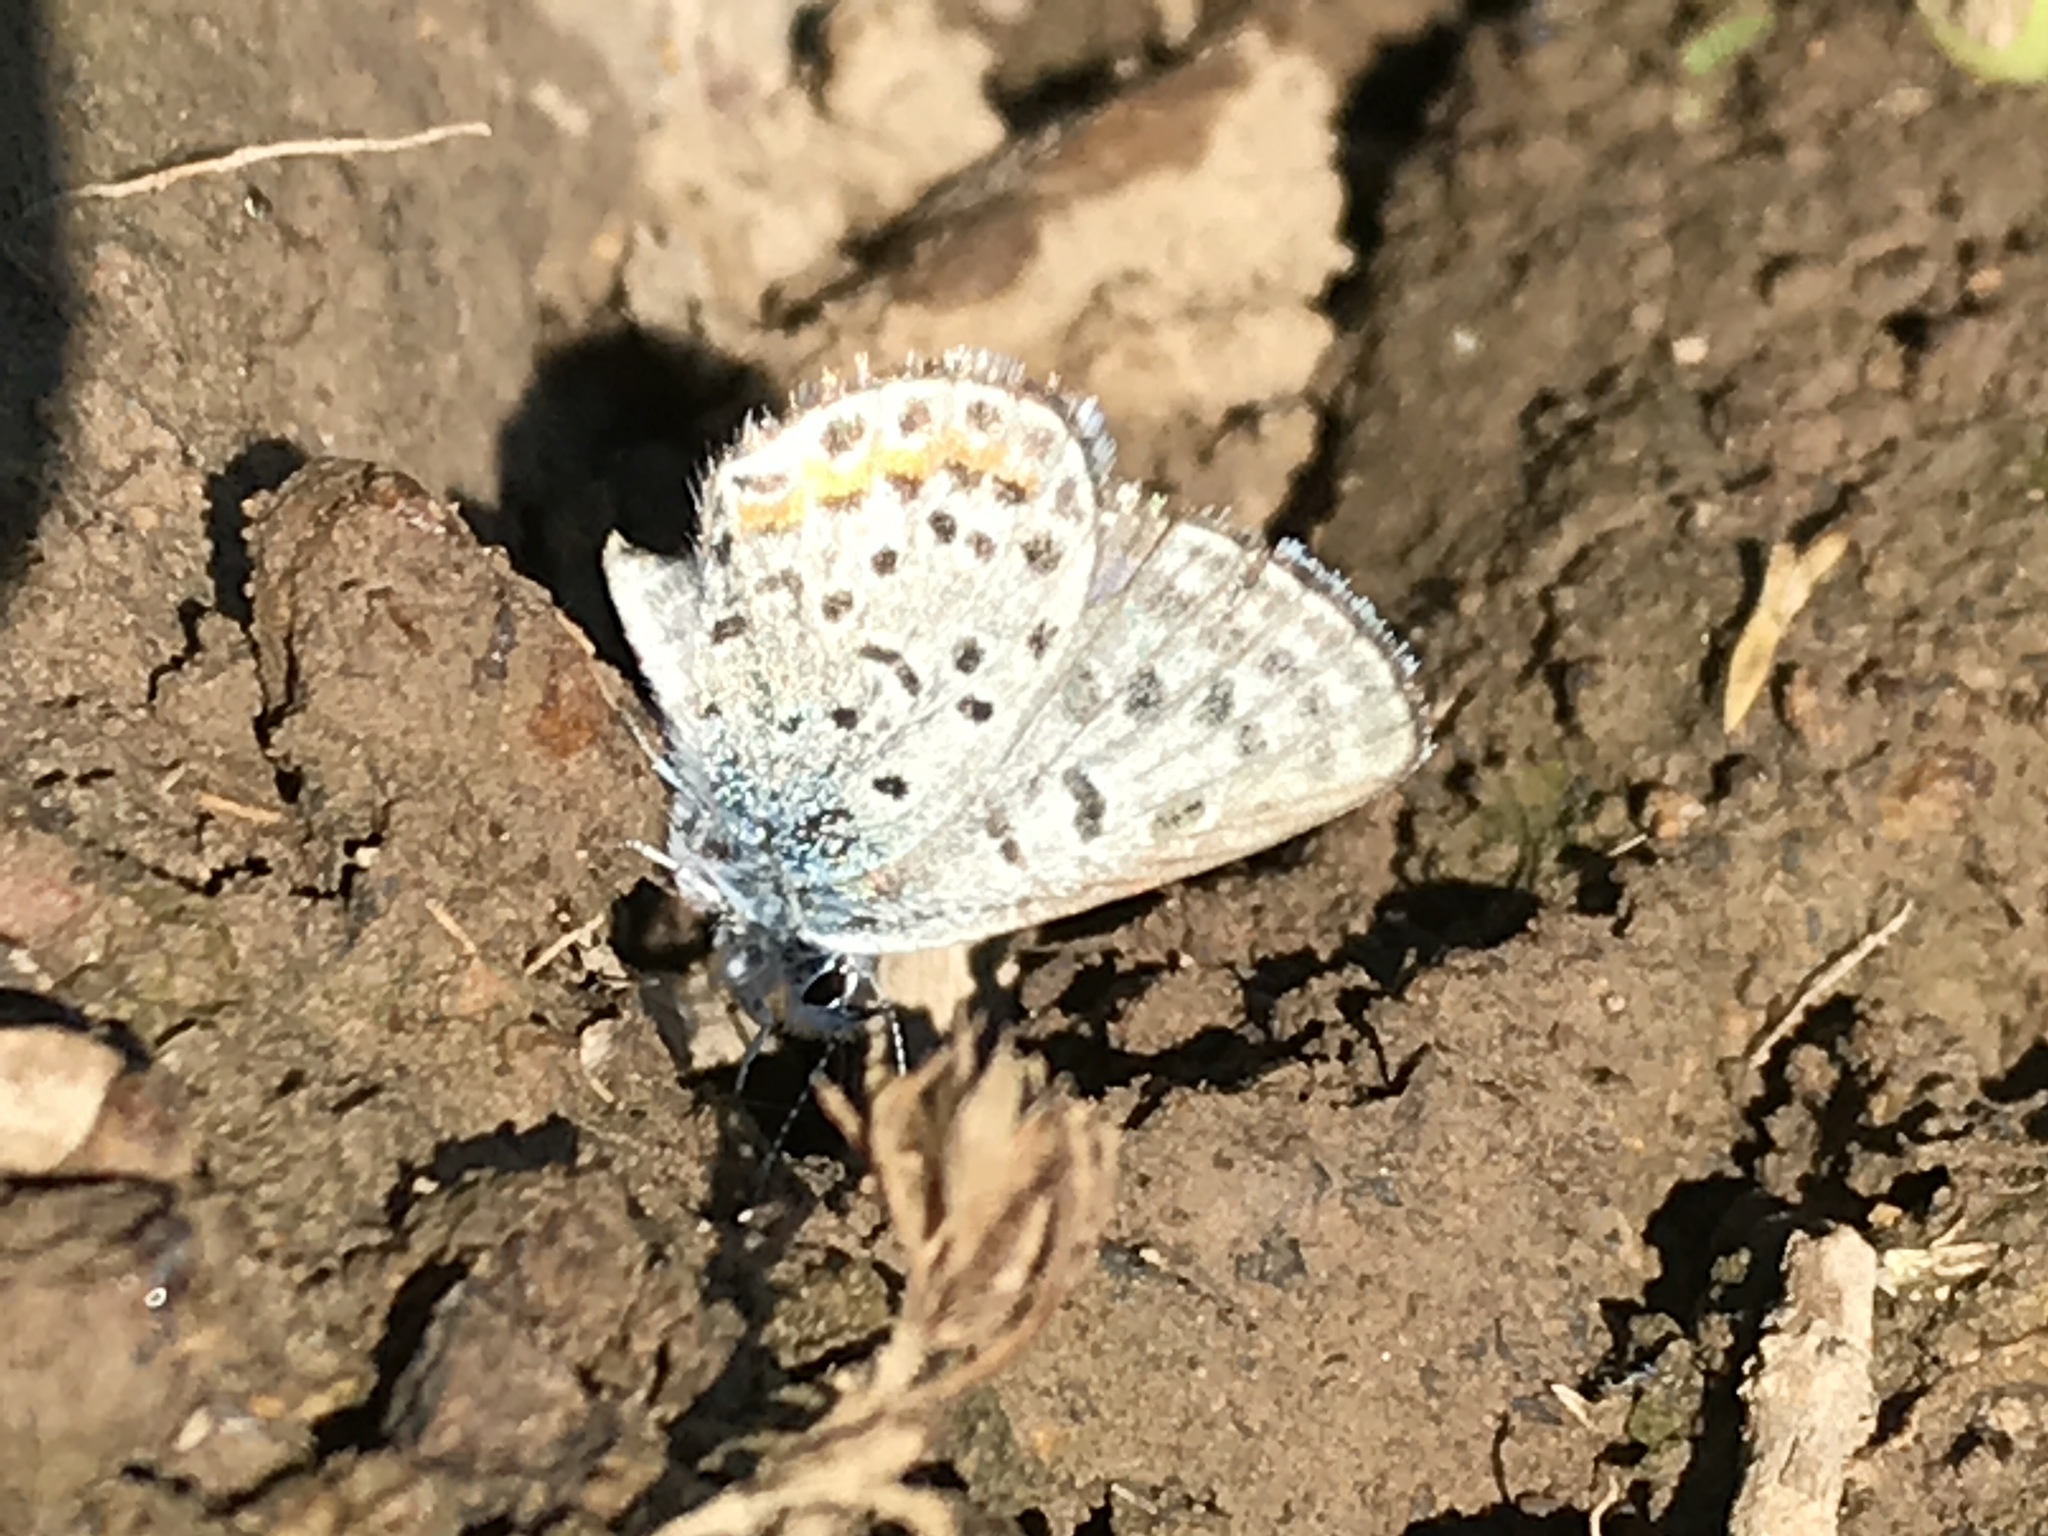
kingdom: Animalia
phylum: Arthropoda
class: Insecta
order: Lepidoptera
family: Lycaenidae
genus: Euphilotes
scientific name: Euphilotes enoptes
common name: Dotted blue
